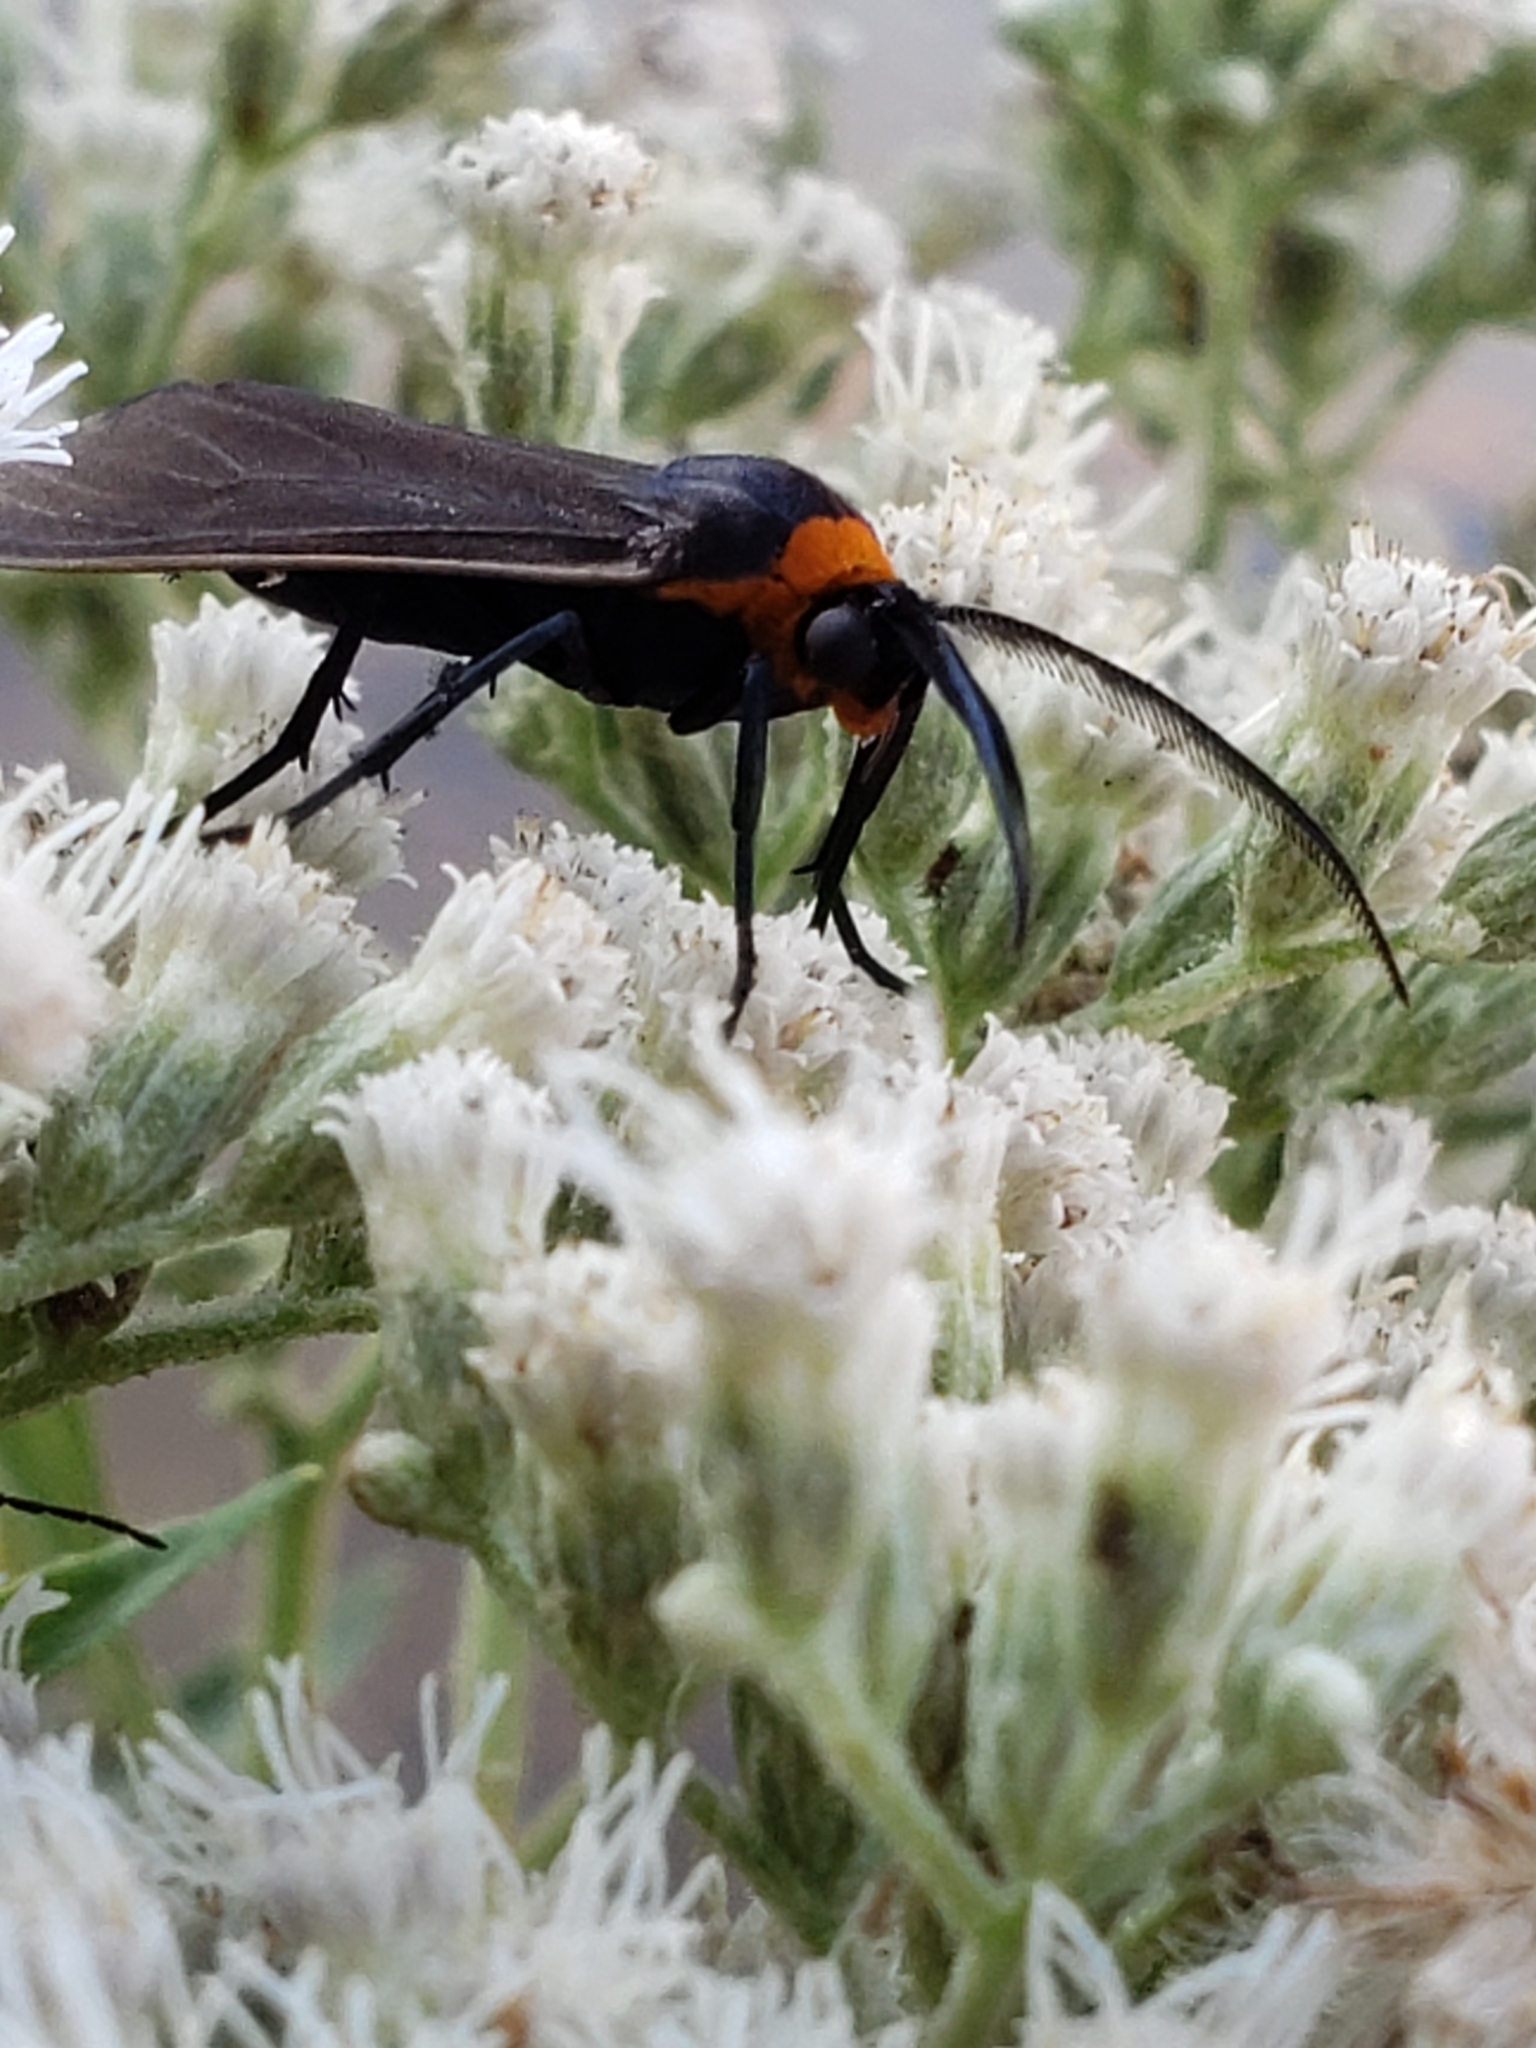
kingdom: Animalia
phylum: Arthropoda
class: Insecta
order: Lepidoptera
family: Erebidae
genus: Cisseps
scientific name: Cisseps fulvicollis
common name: Yellow-collared scape moth
